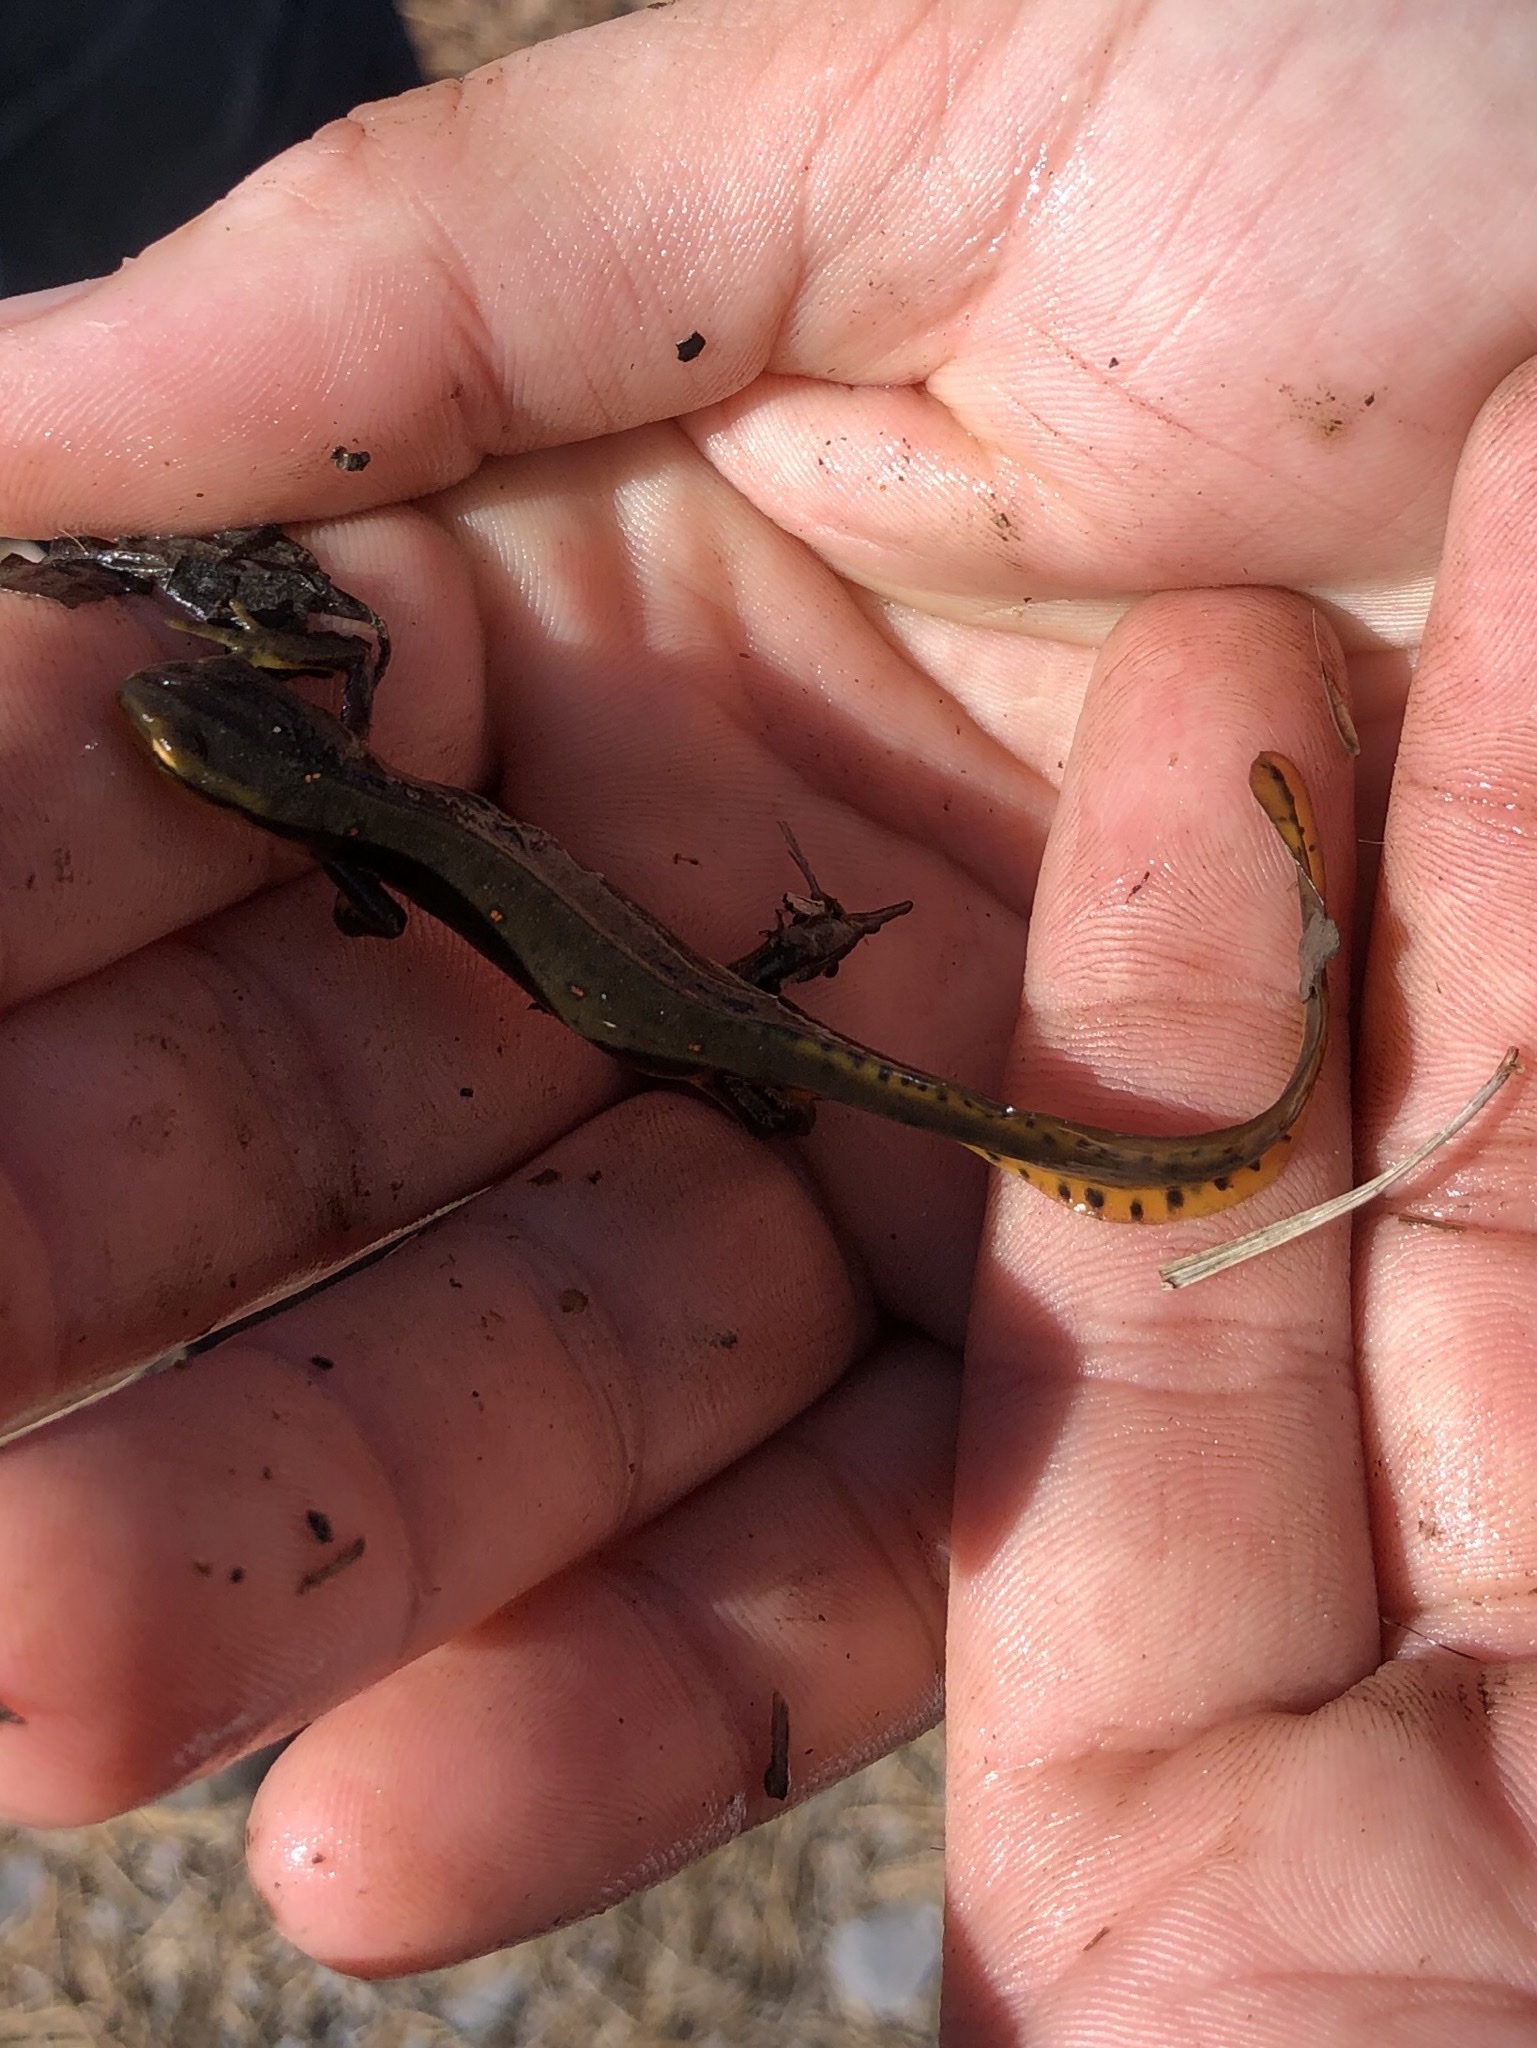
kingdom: Animalia
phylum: Chordata
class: Amphibia
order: Caudata
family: Salamandridae
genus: Notophthalmus
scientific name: Notophthalmus viridescens
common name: Eastern newt
